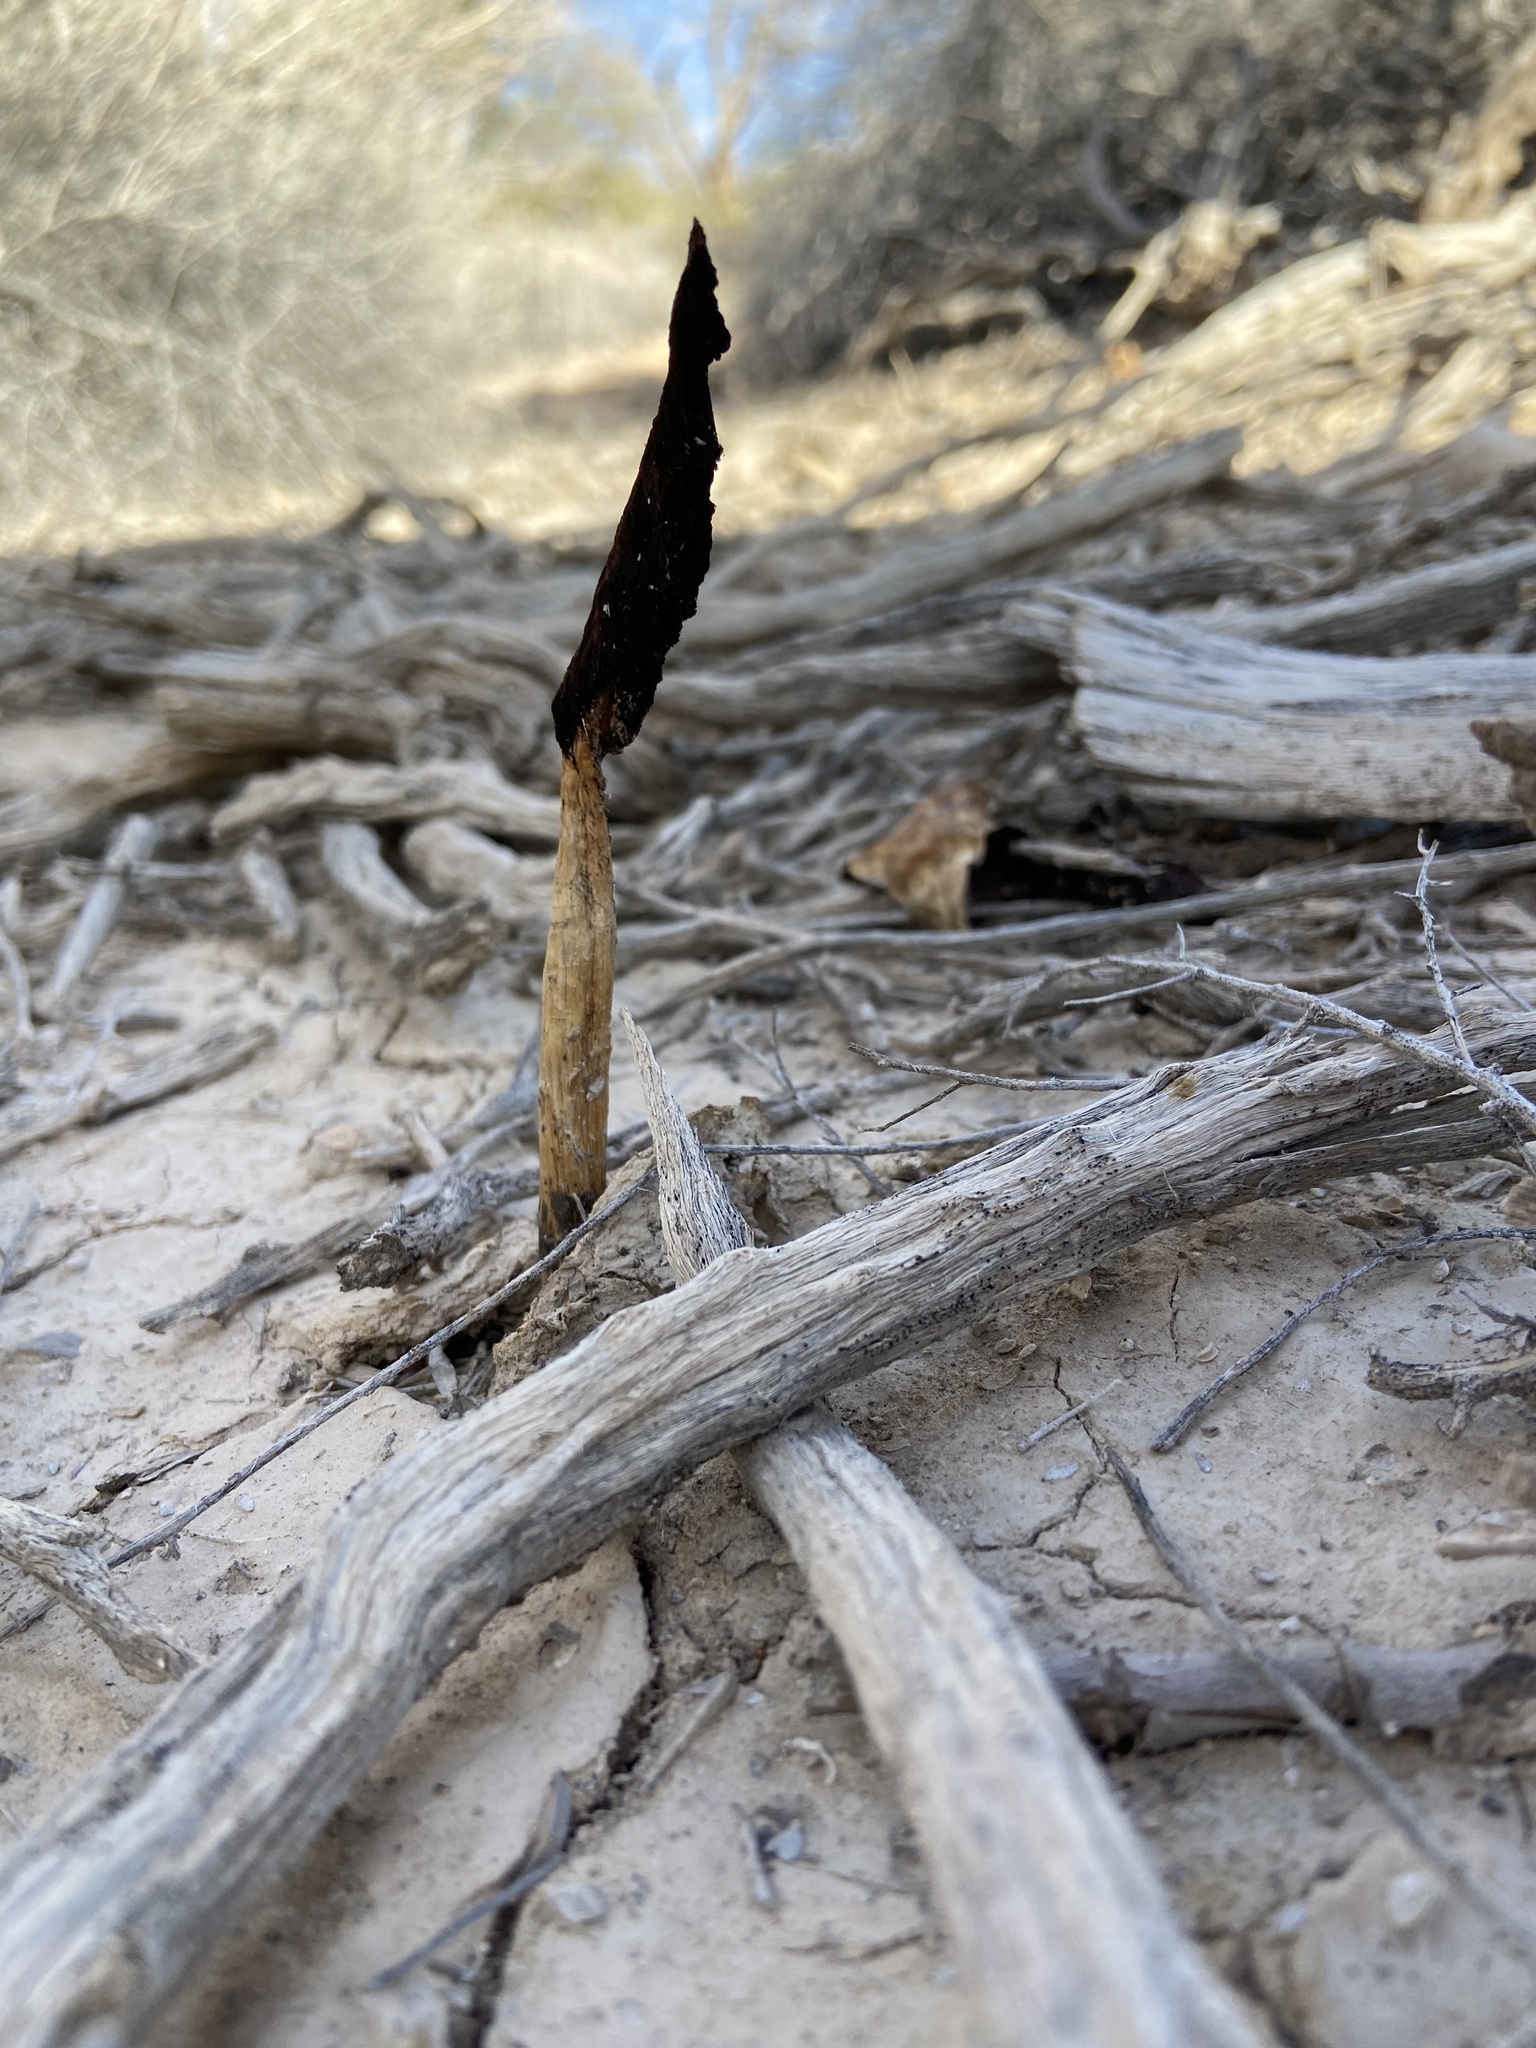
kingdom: Fungi
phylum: Basidiomycota
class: Agaricomycetes
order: Agaricales
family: Agaricaceae
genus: Podaxis
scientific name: Podaxis pistillaris
